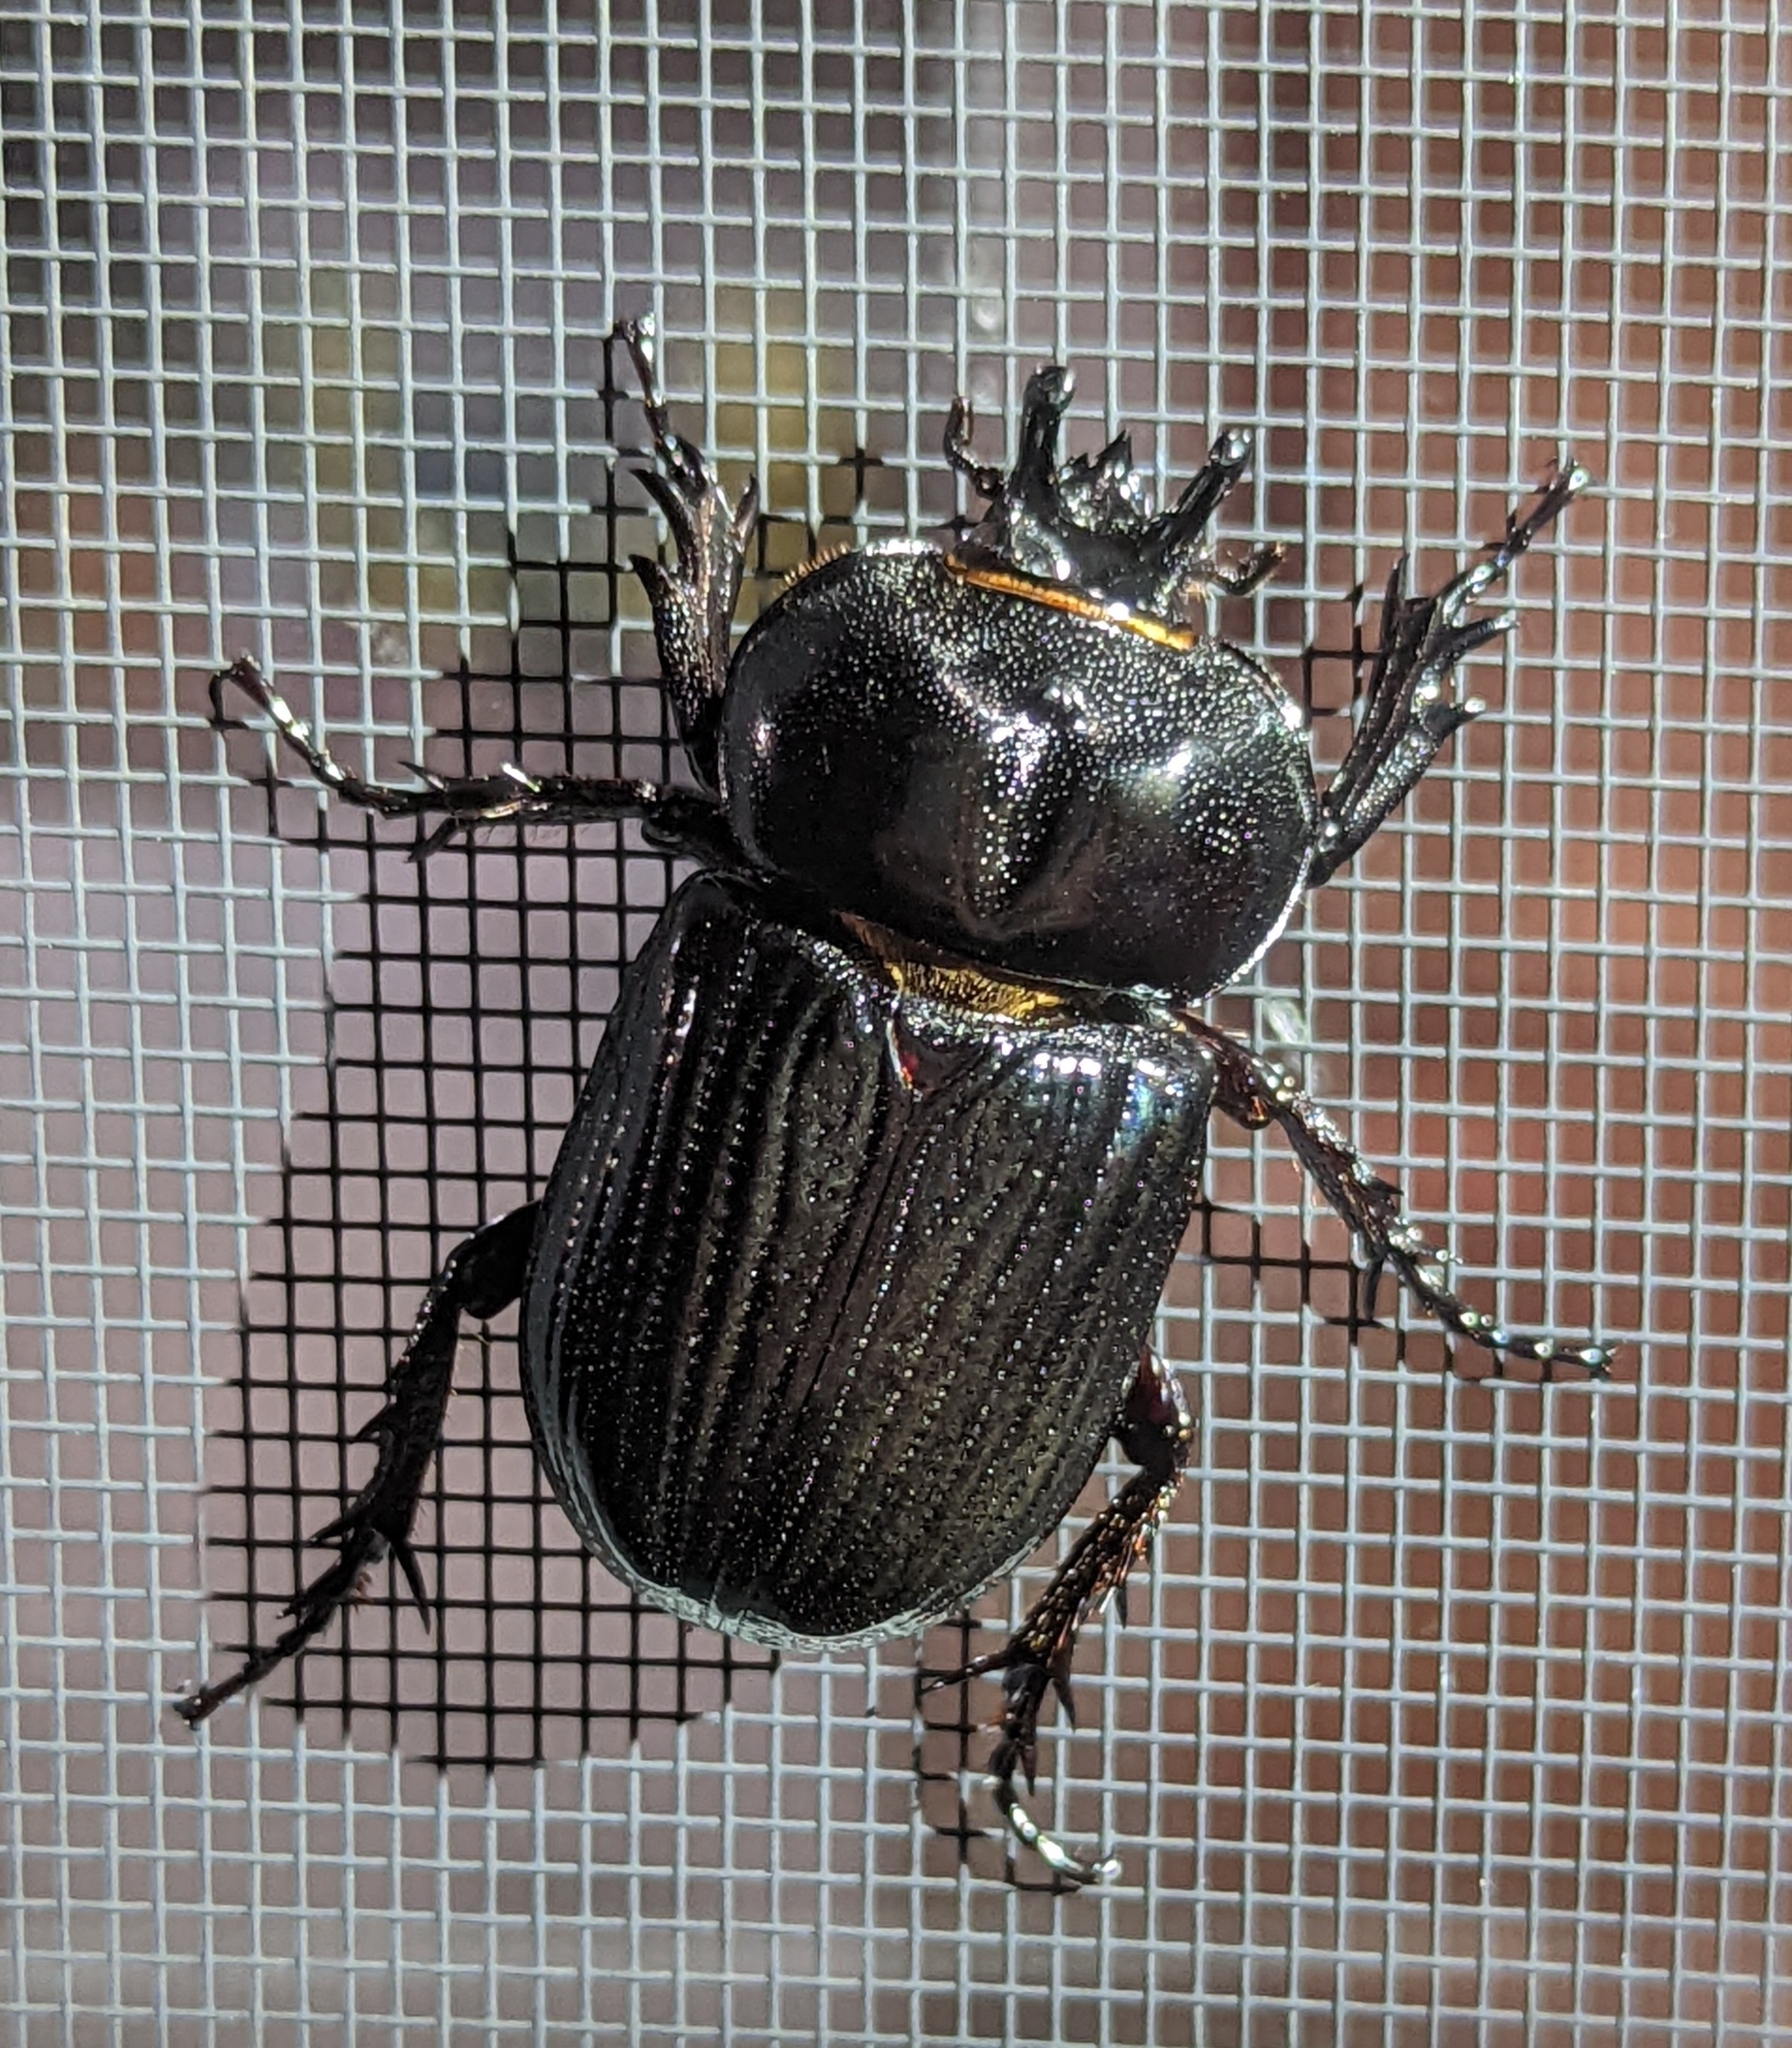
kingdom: Animalia
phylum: Arthropoda
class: Insecta
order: Coleoptera
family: Scarabaeidae
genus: Phileurus
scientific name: Phileurus truncatus
